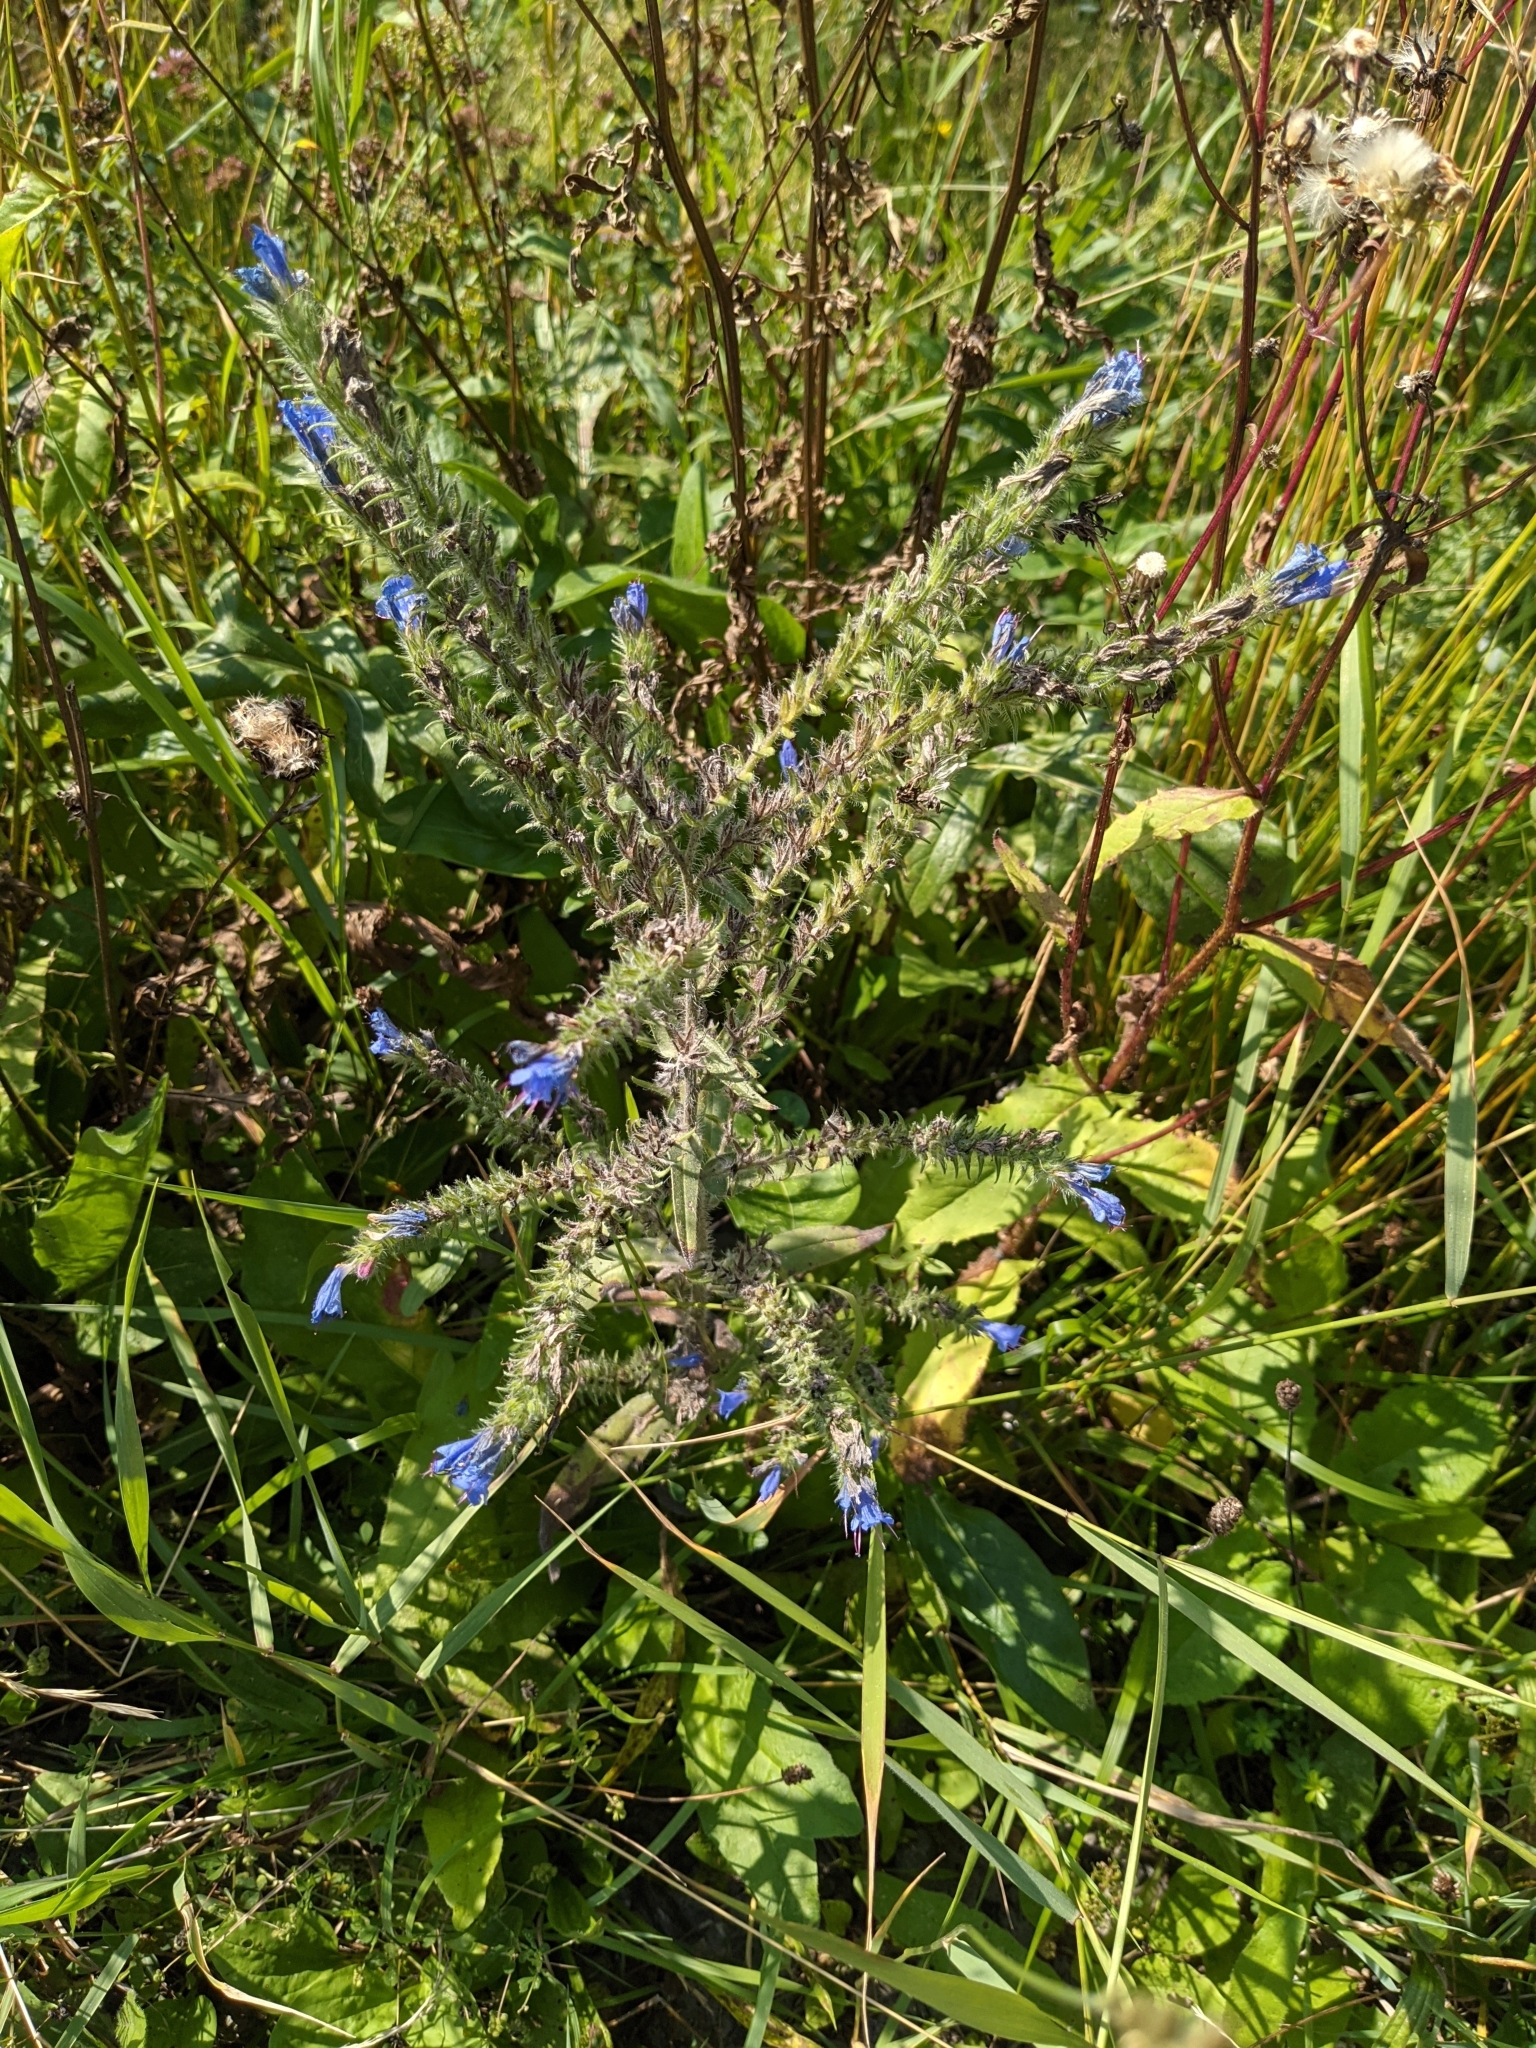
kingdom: Plantae
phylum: Tracheophyta
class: Magnoliopsida
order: Boraginales
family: Boraginaceae
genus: Echium
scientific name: Echium vulgare
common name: Common viper's bugloss
